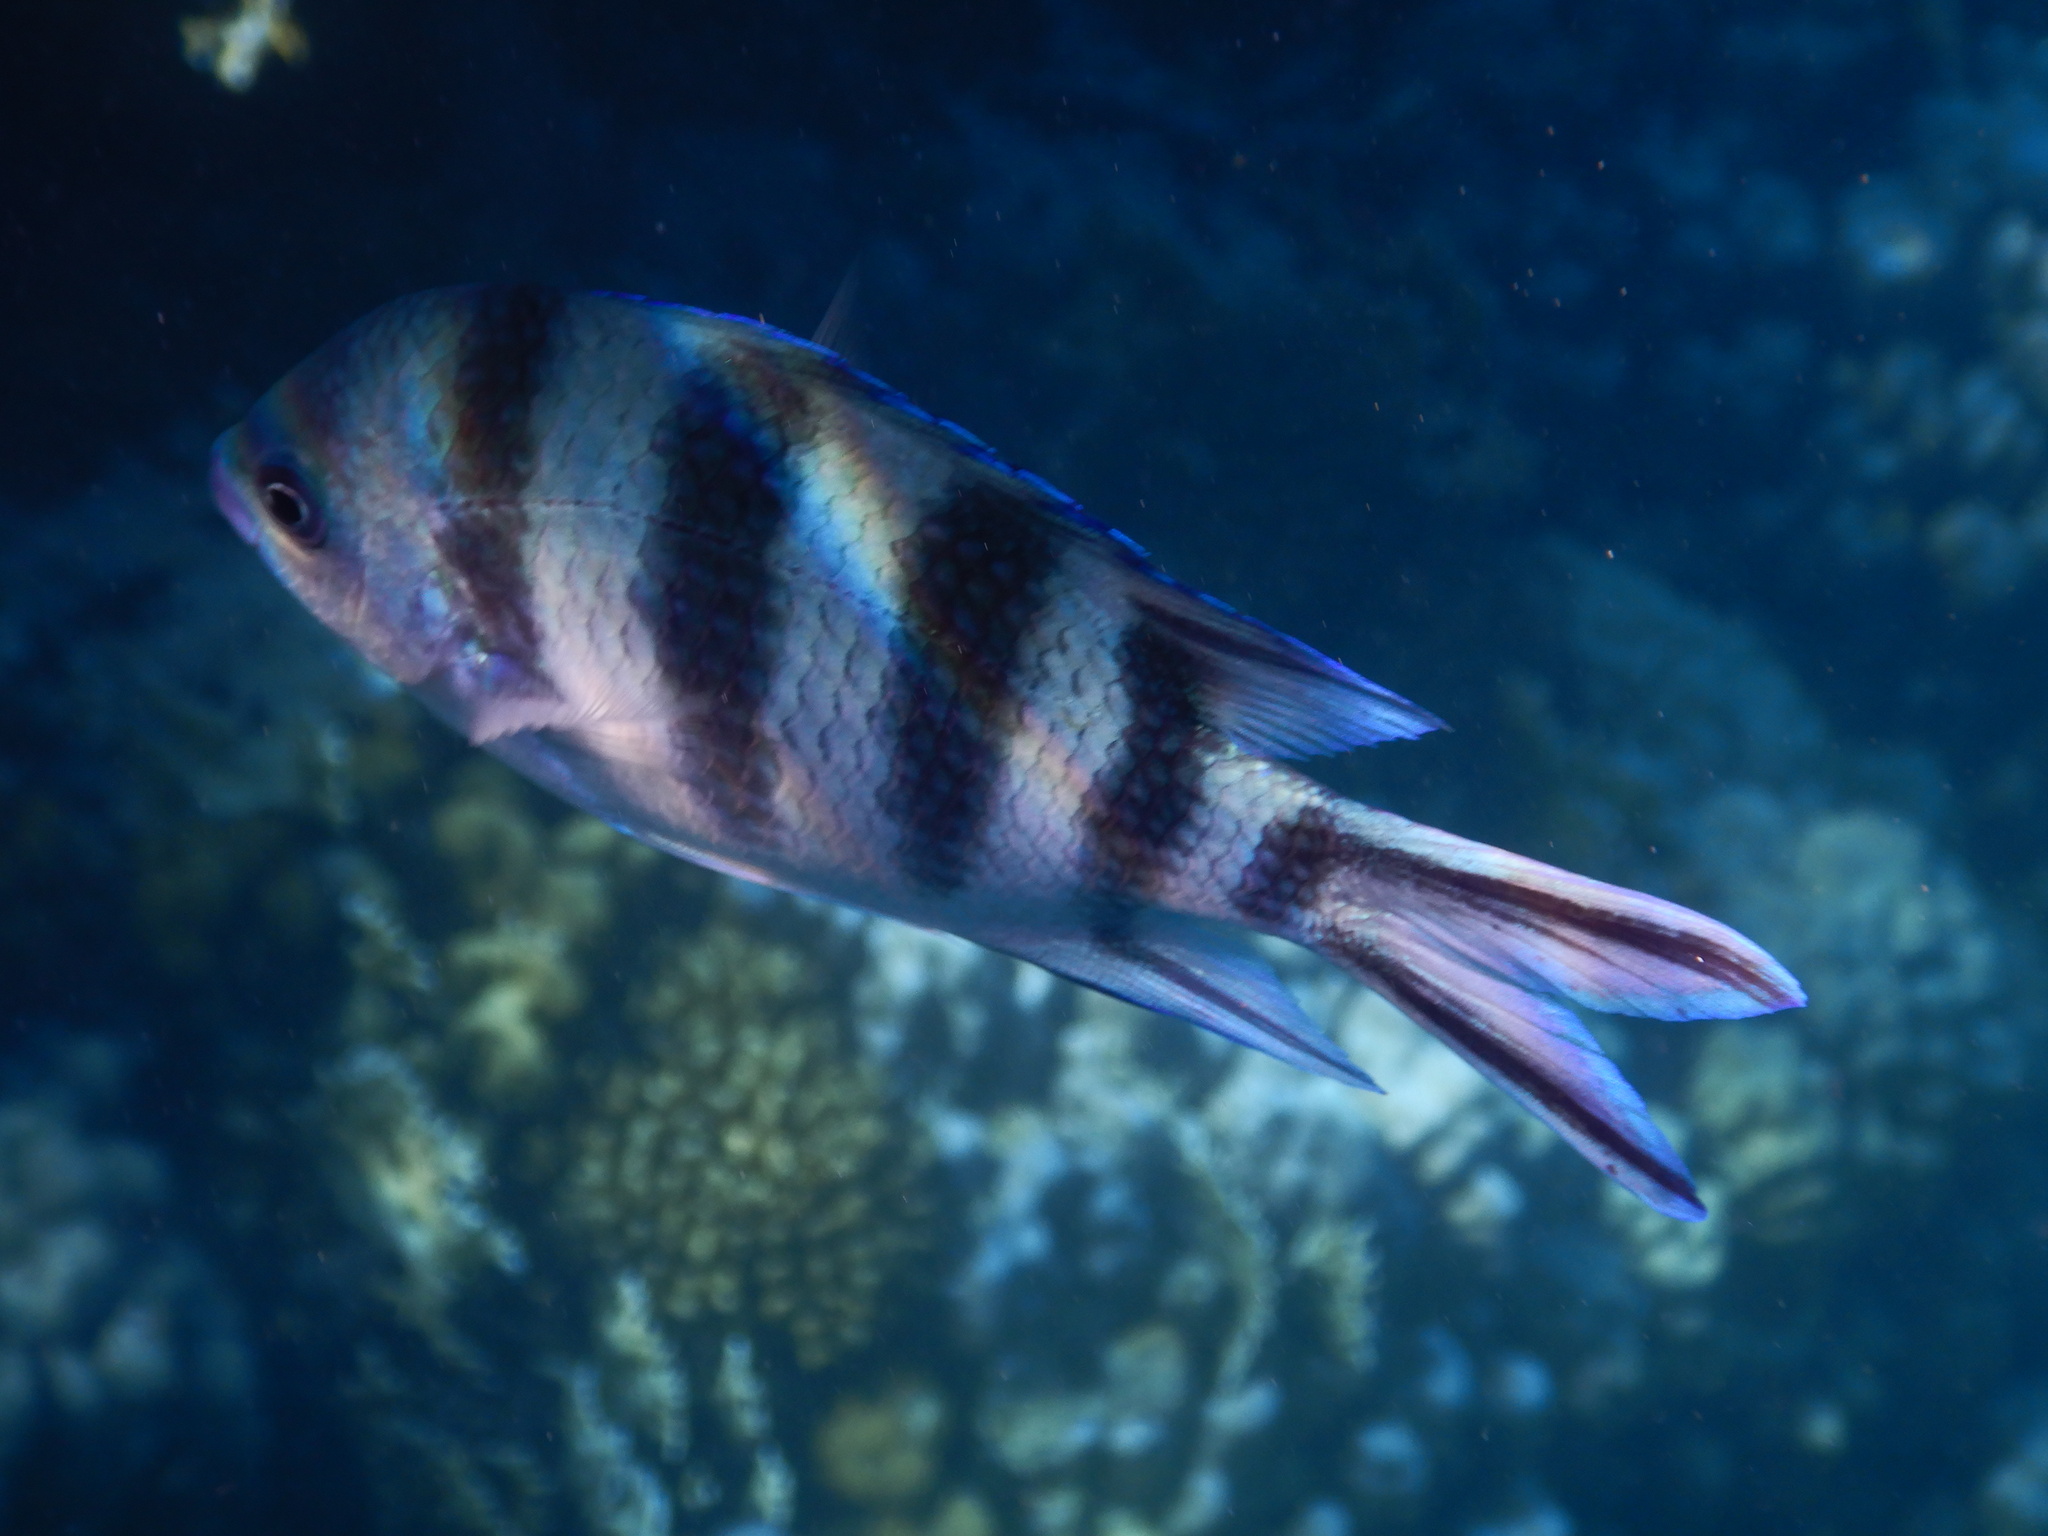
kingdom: Animalia
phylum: Chordata
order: Perciformes
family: Pomacentridae
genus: Abudefduf
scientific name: Abudefduf sexfasciatus
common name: Scissortail sergeant
